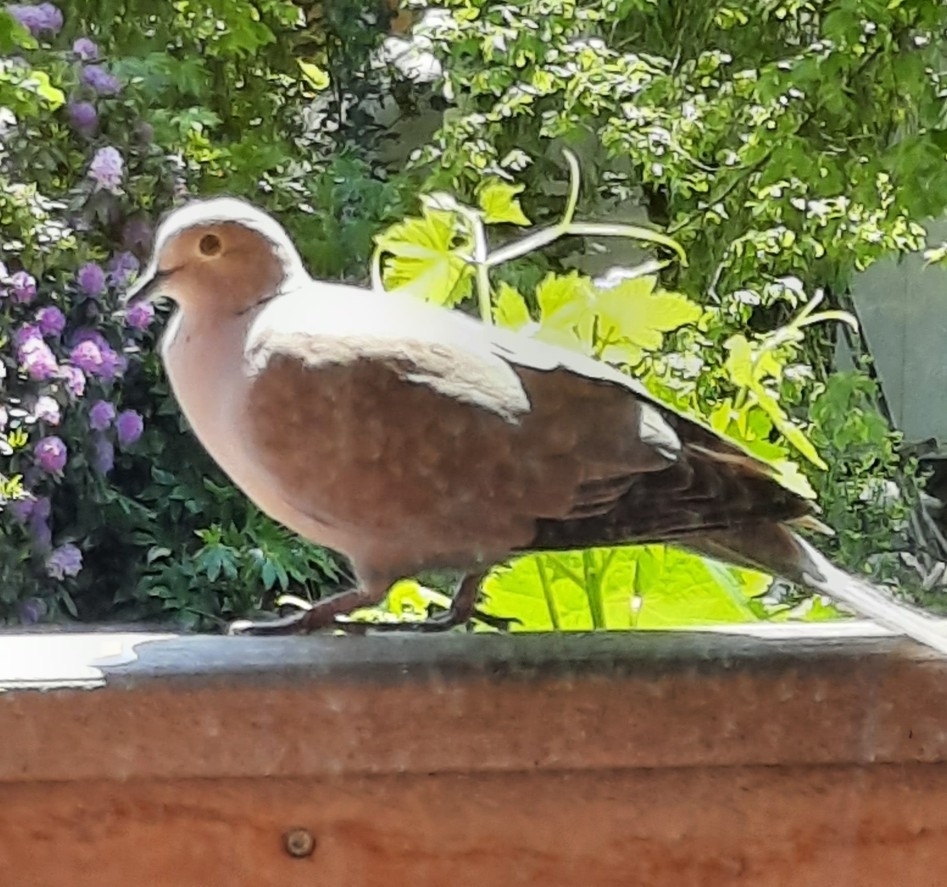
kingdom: Animalia
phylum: Chordata
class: Aves
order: Columbiformes
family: Columbidae
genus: Streptopelia
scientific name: Streptopelia decaocto
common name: Eurasian collared dove
